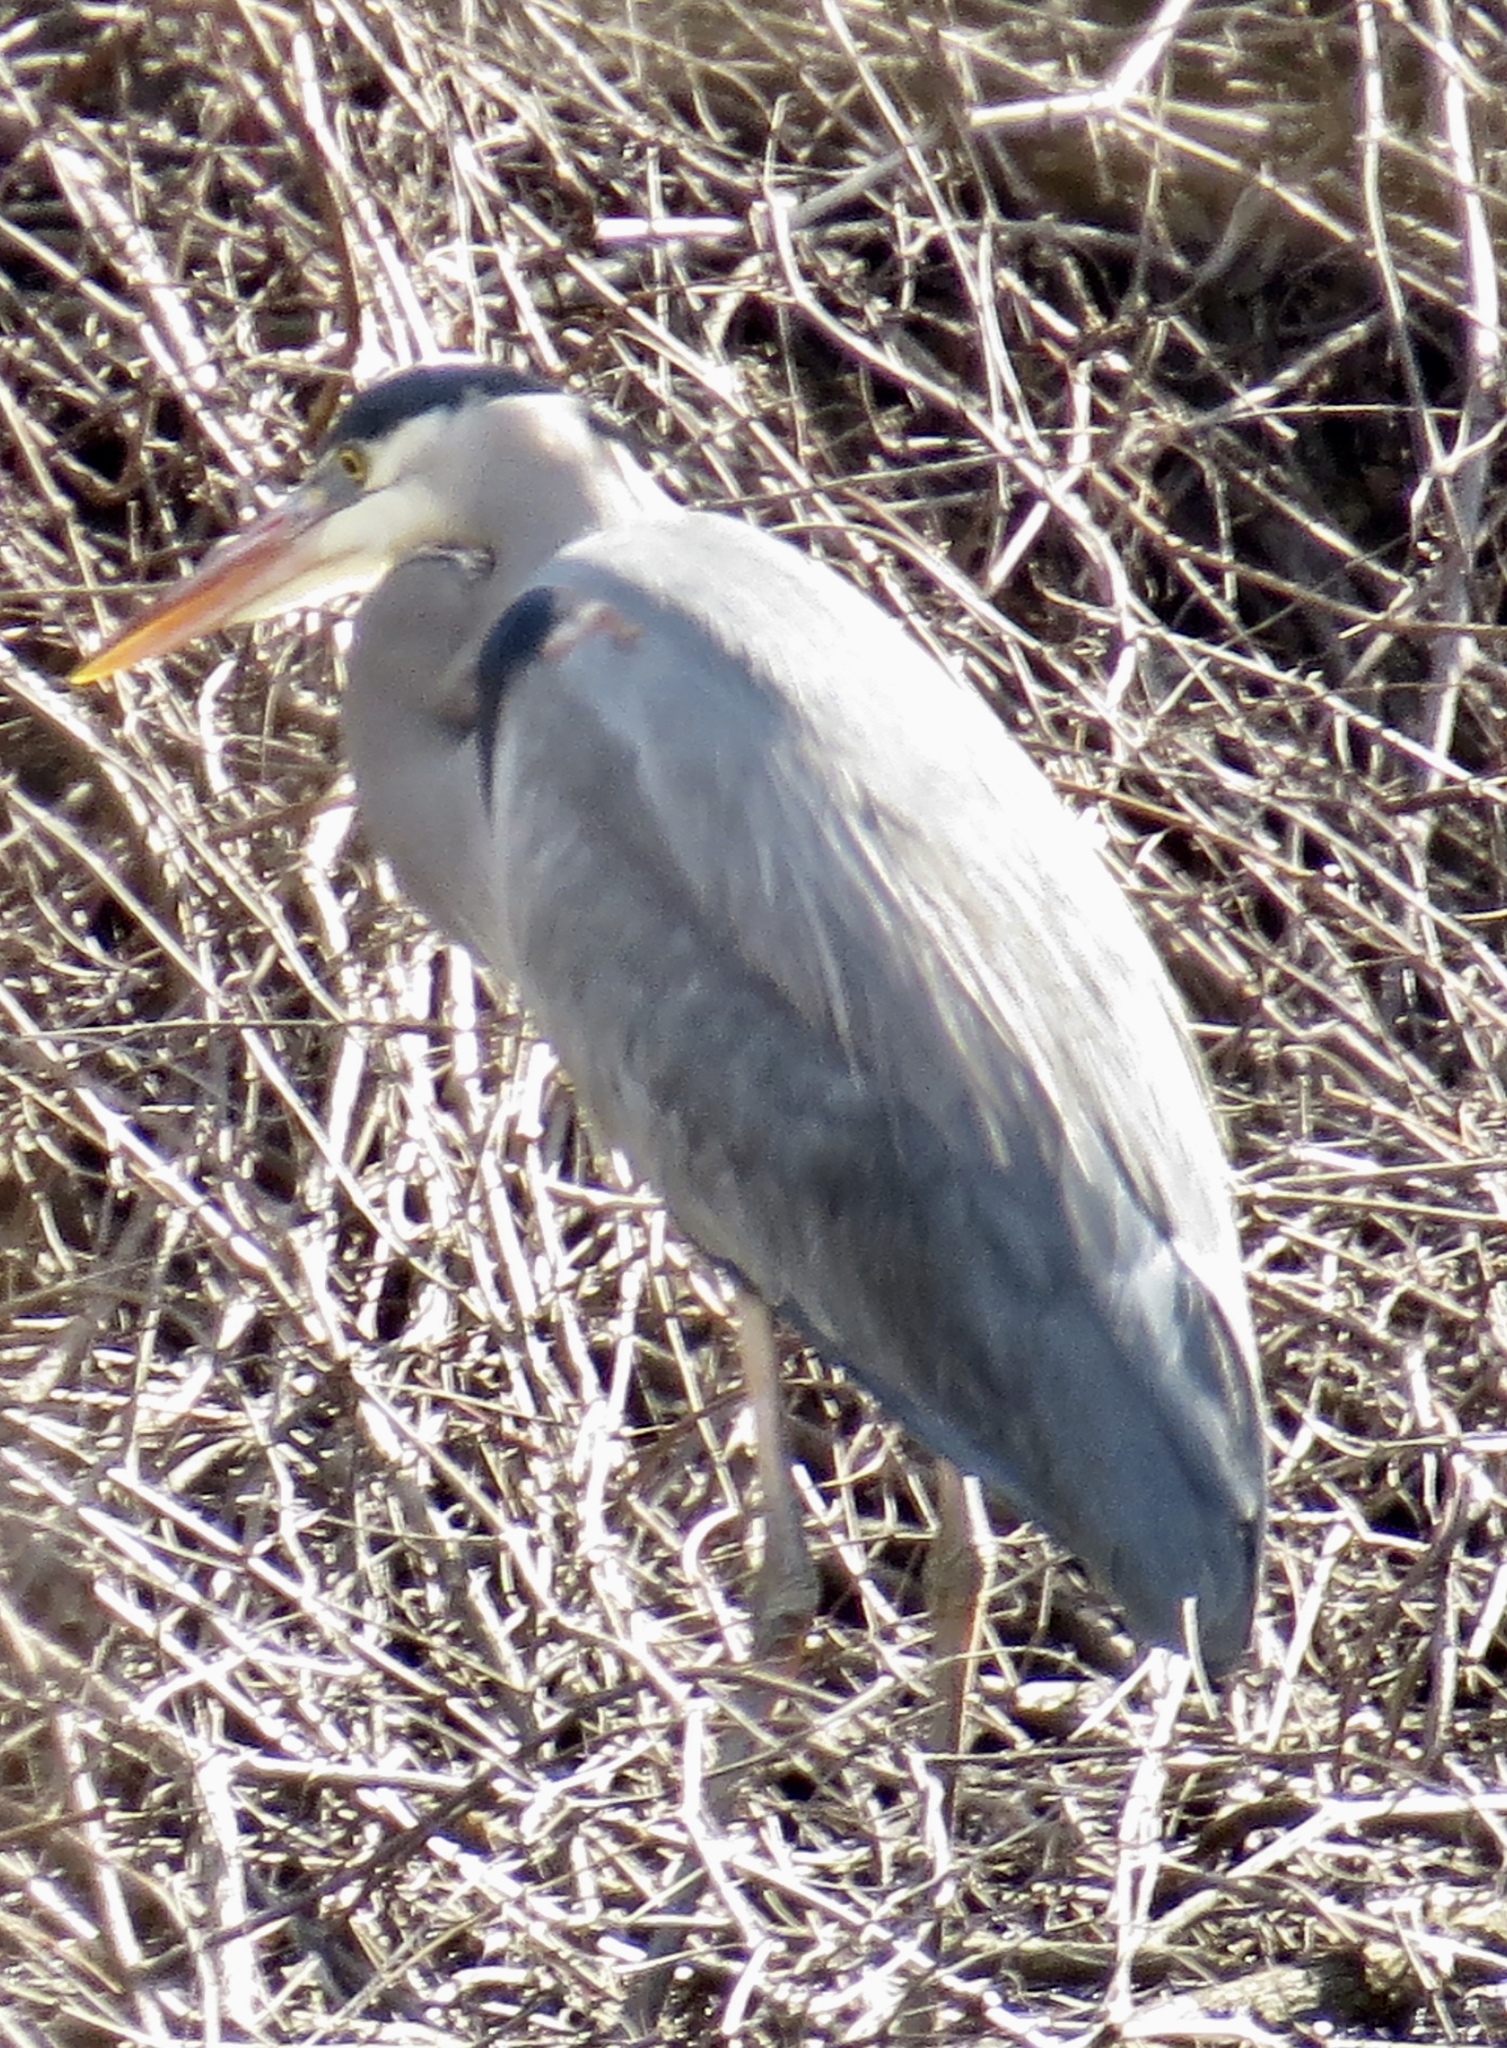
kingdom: Animalia
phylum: Chordata
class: Aves
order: Pelecaniformes
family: Ardeidae
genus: Ardea
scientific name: Ardea herodias
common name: Great blue heron
